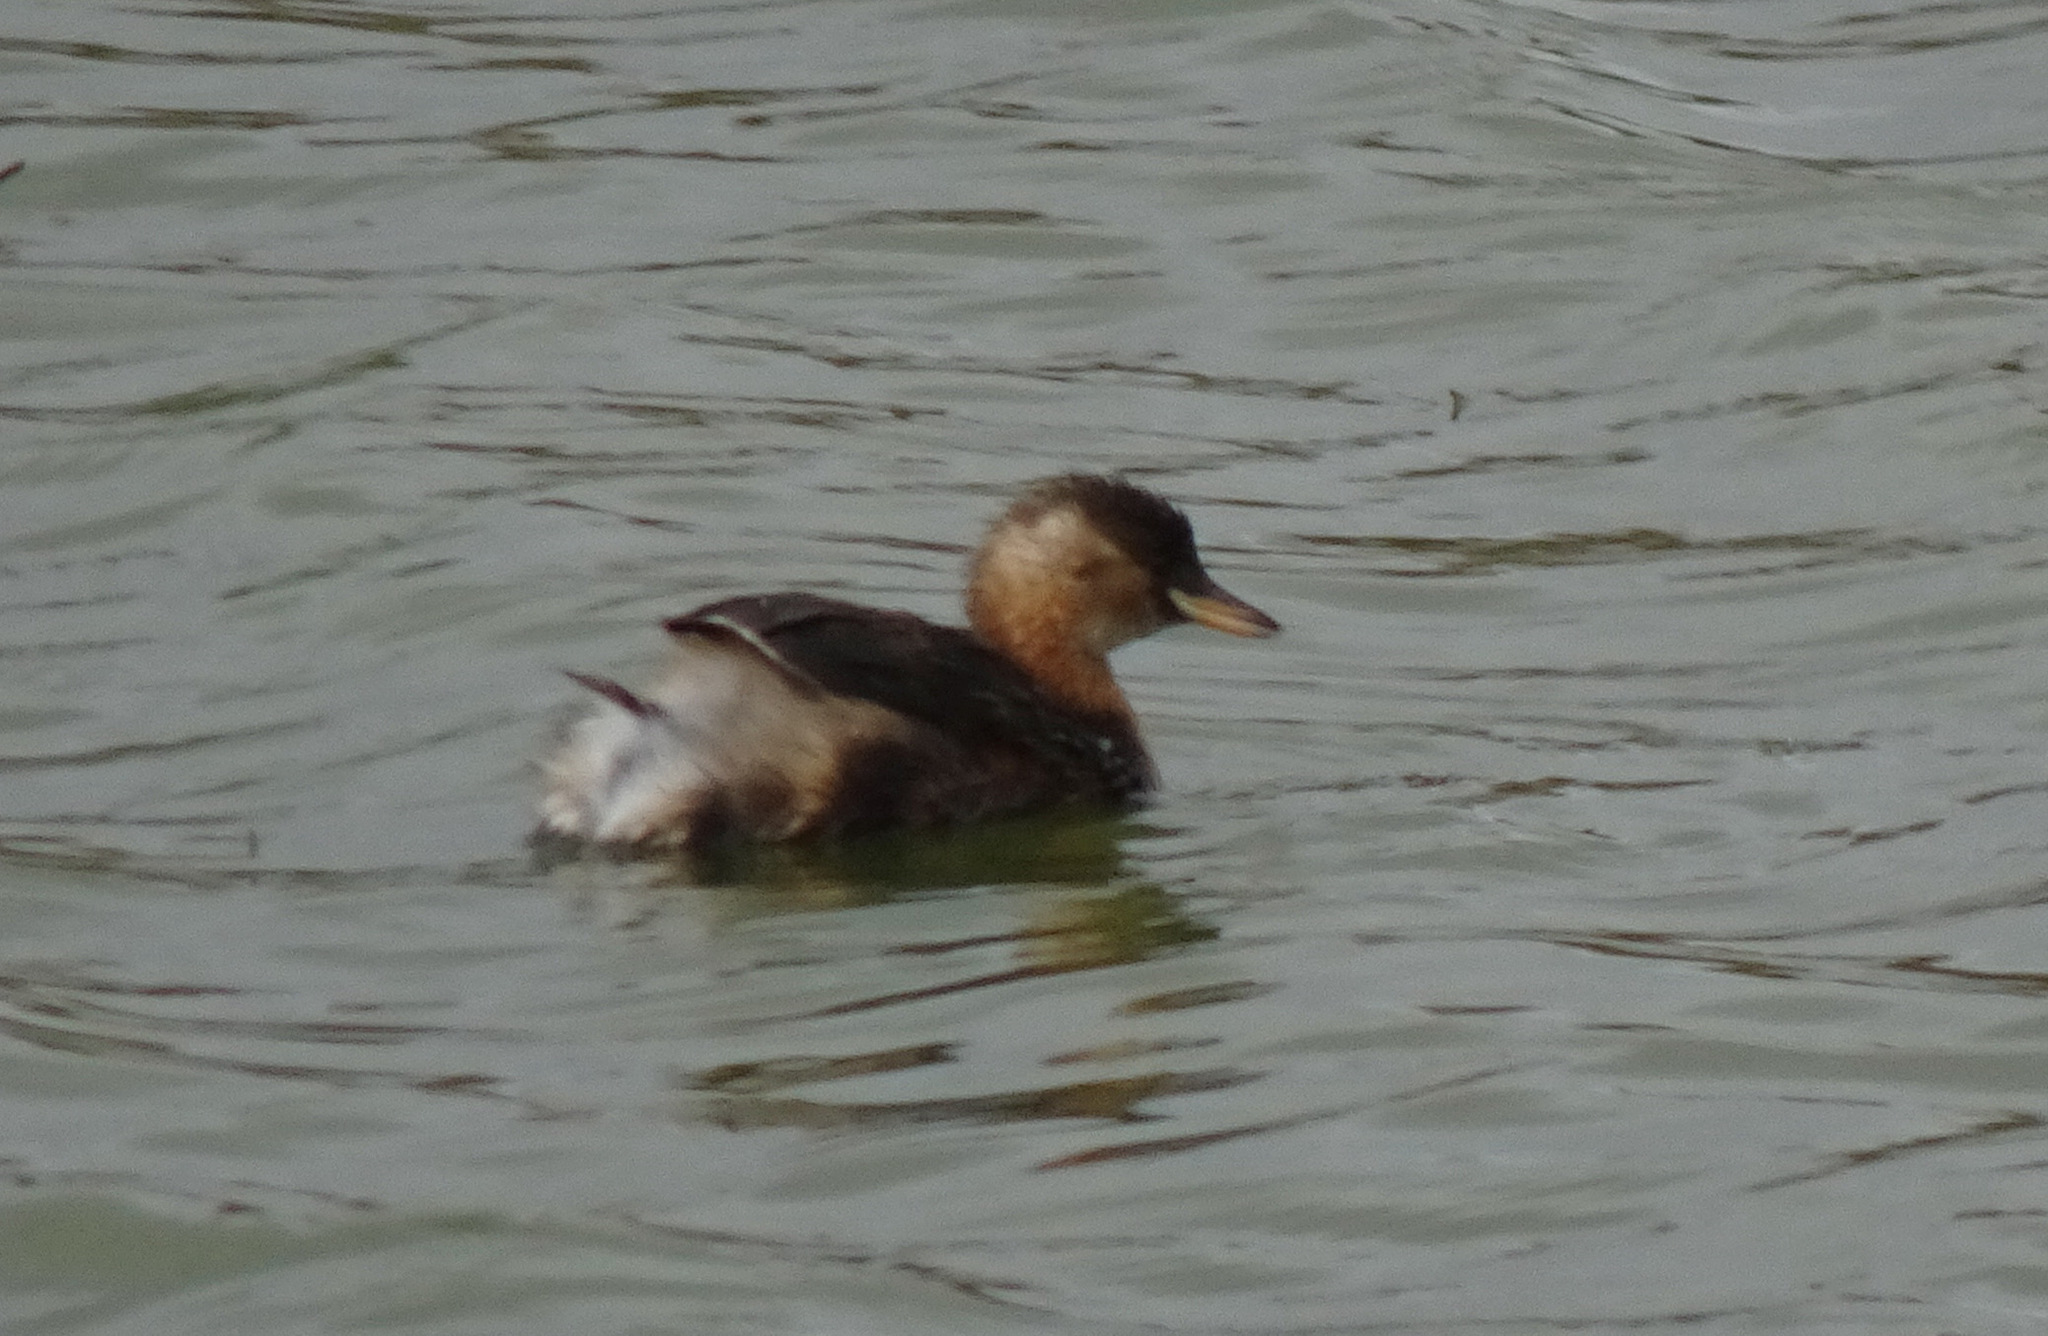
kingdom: Animalia
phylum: Chordata
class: Aves
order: Podicipediformes
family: Podicipedidae
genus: Tachybaptus
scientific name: Tachybaptus ruficollis
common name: Little grebe
